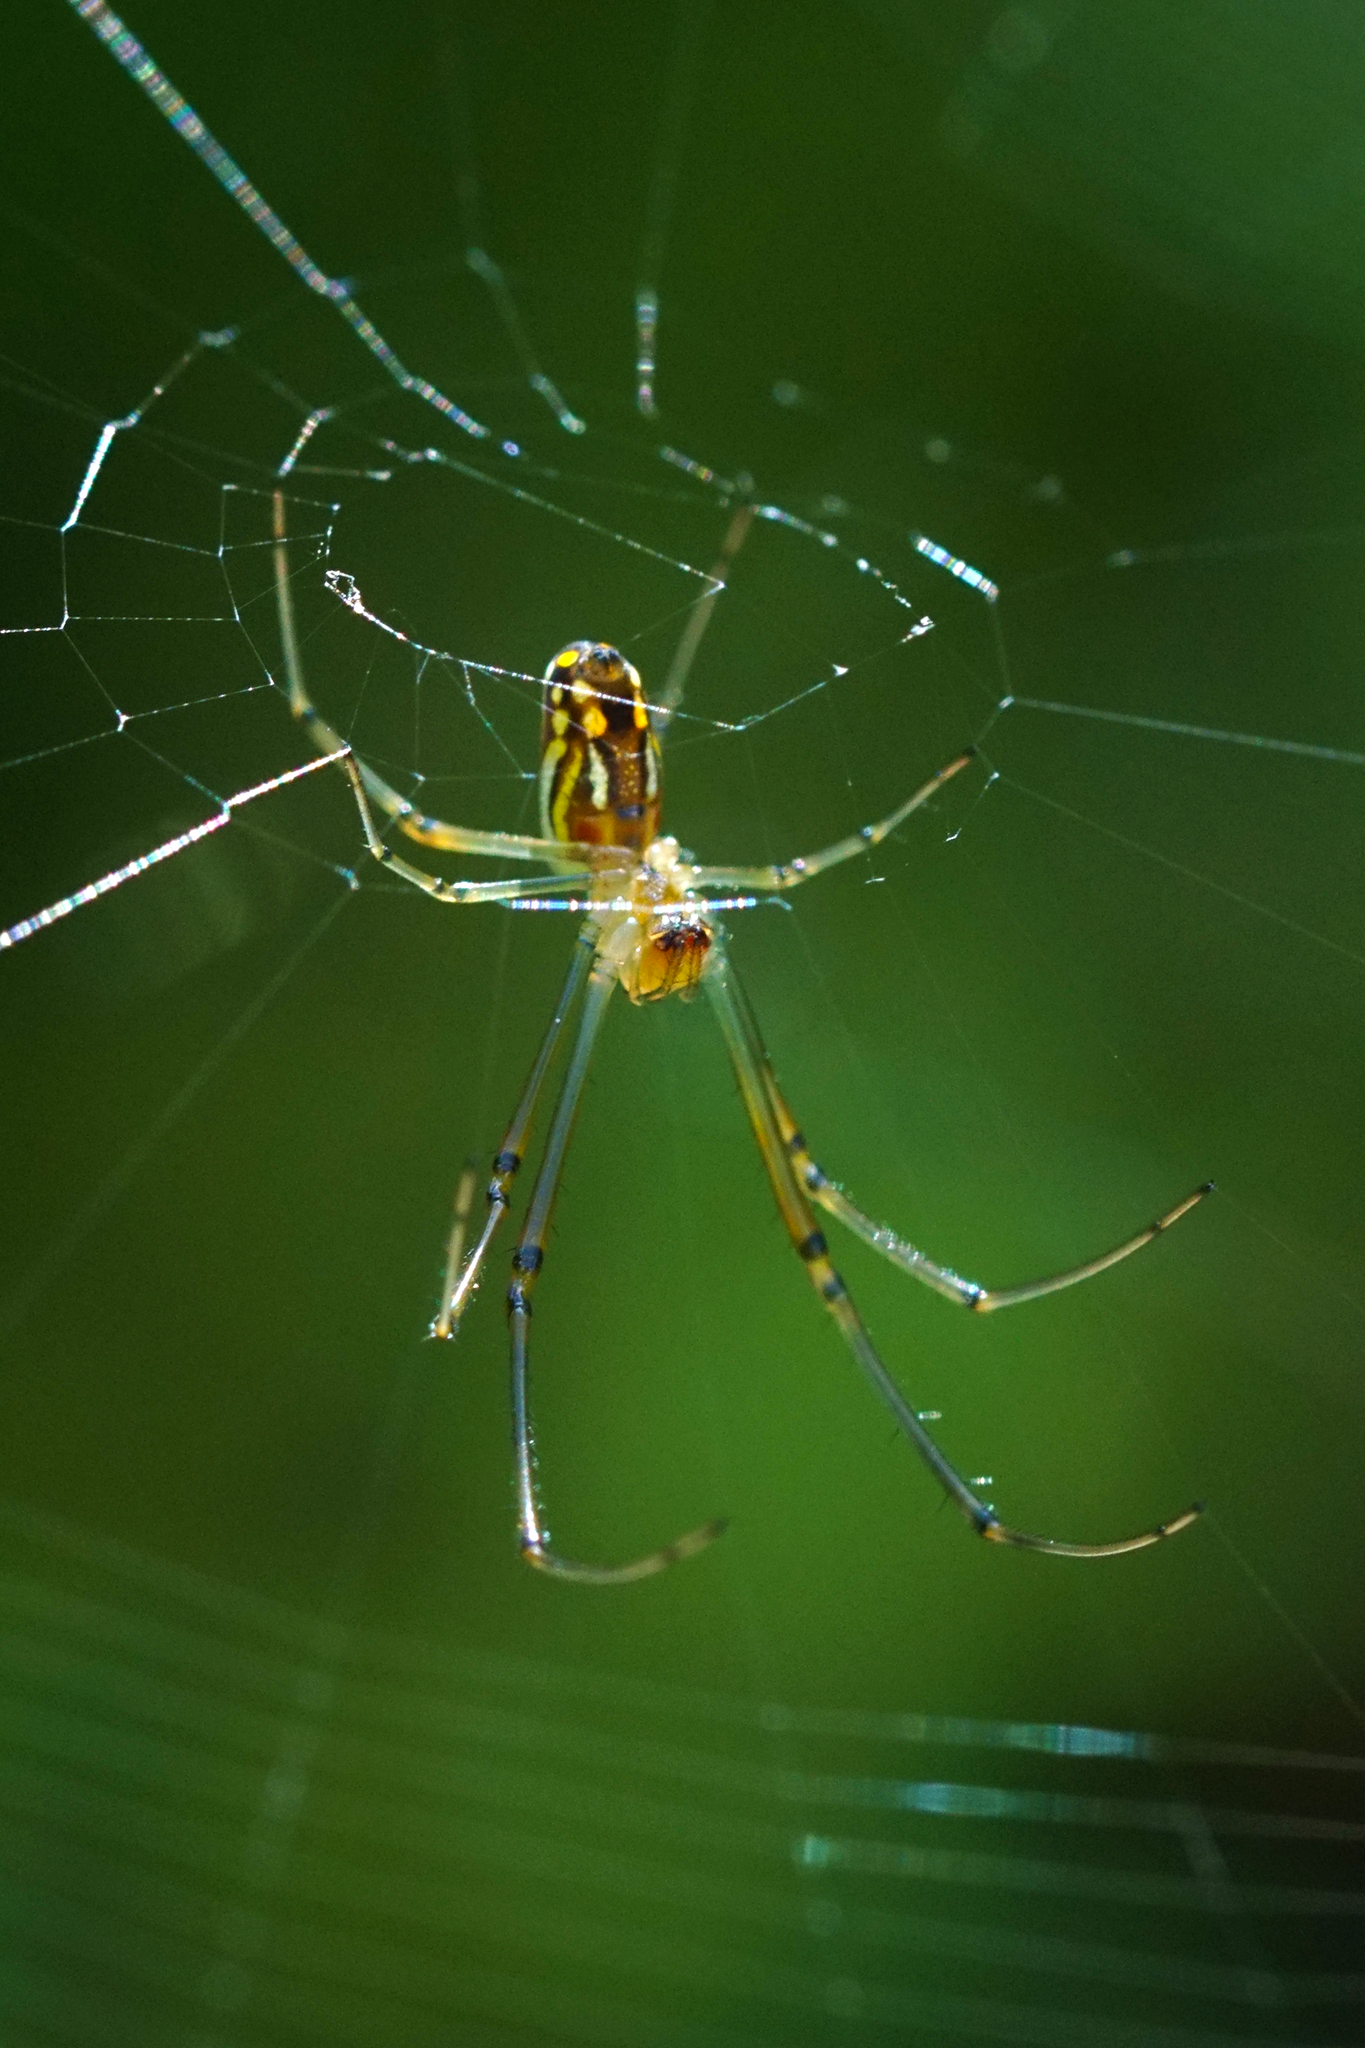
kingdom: Animalia
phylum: Arthropoda
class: Arachnida
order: Araneae
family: Tetragnathidae
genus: Leucauge
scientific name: Leucauge argyra
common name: Longjawed orb weavers
